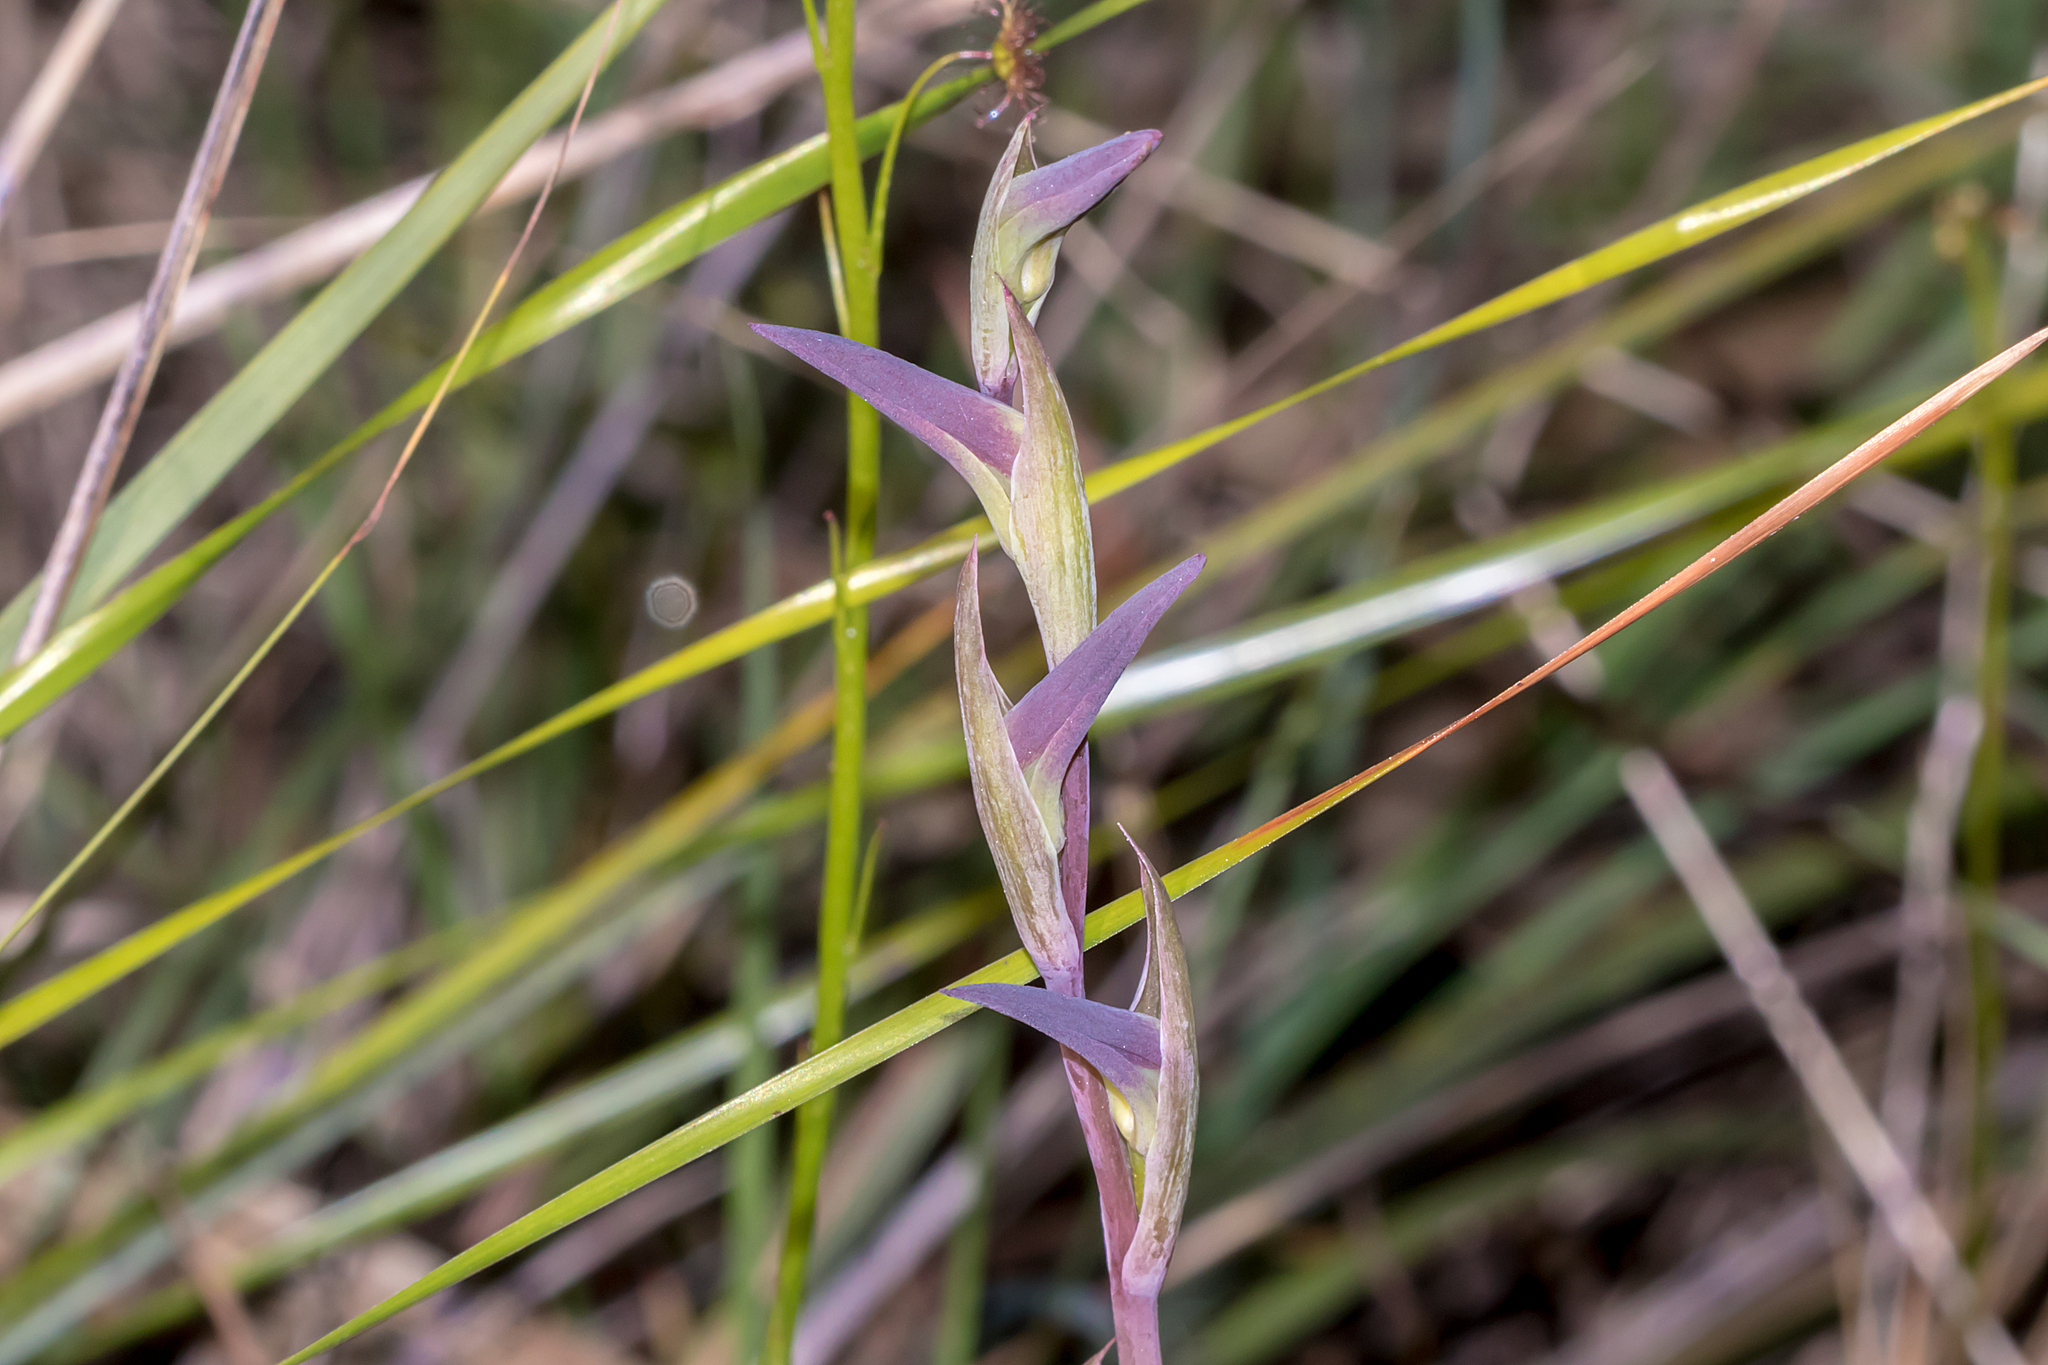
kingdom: Plantae
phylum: Tracheophyta
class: Liliopsida
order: Asparagales
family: Orchidaceae
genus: Lyperanthus
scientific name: Lyperanthus suaveolens
